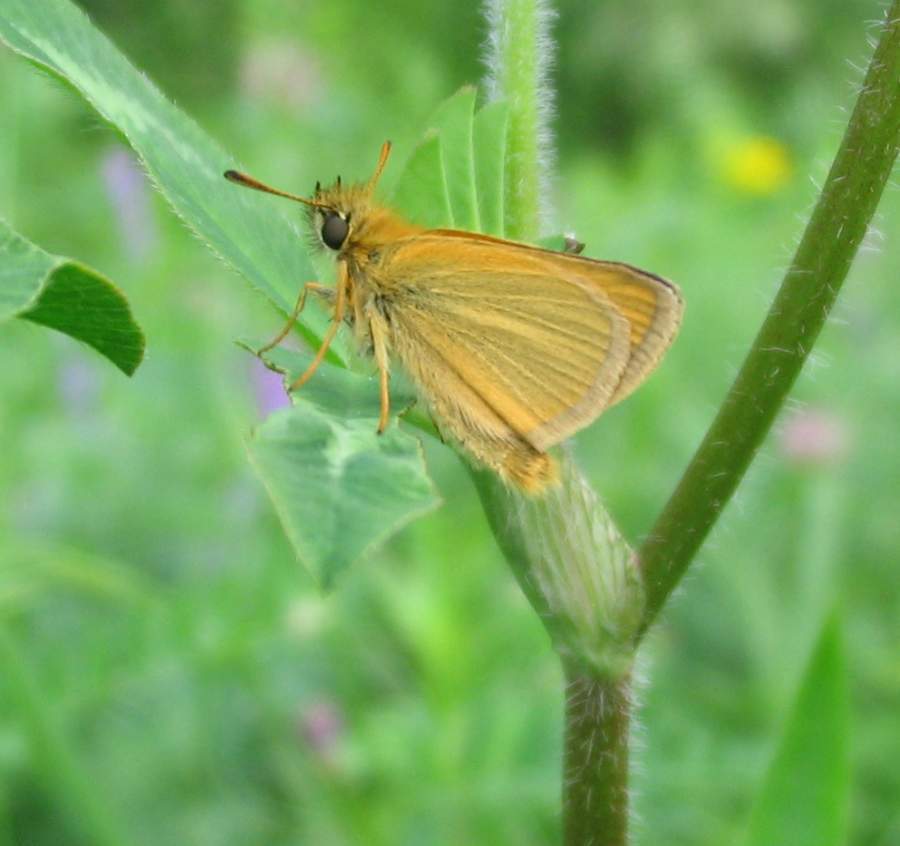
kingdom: Animalia
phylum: Arthropoda
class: Insecta
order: Lepidoptera
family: Hesperiidae
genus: Thymelicus
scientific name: Thymelicus lineola
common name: Essex skipper
